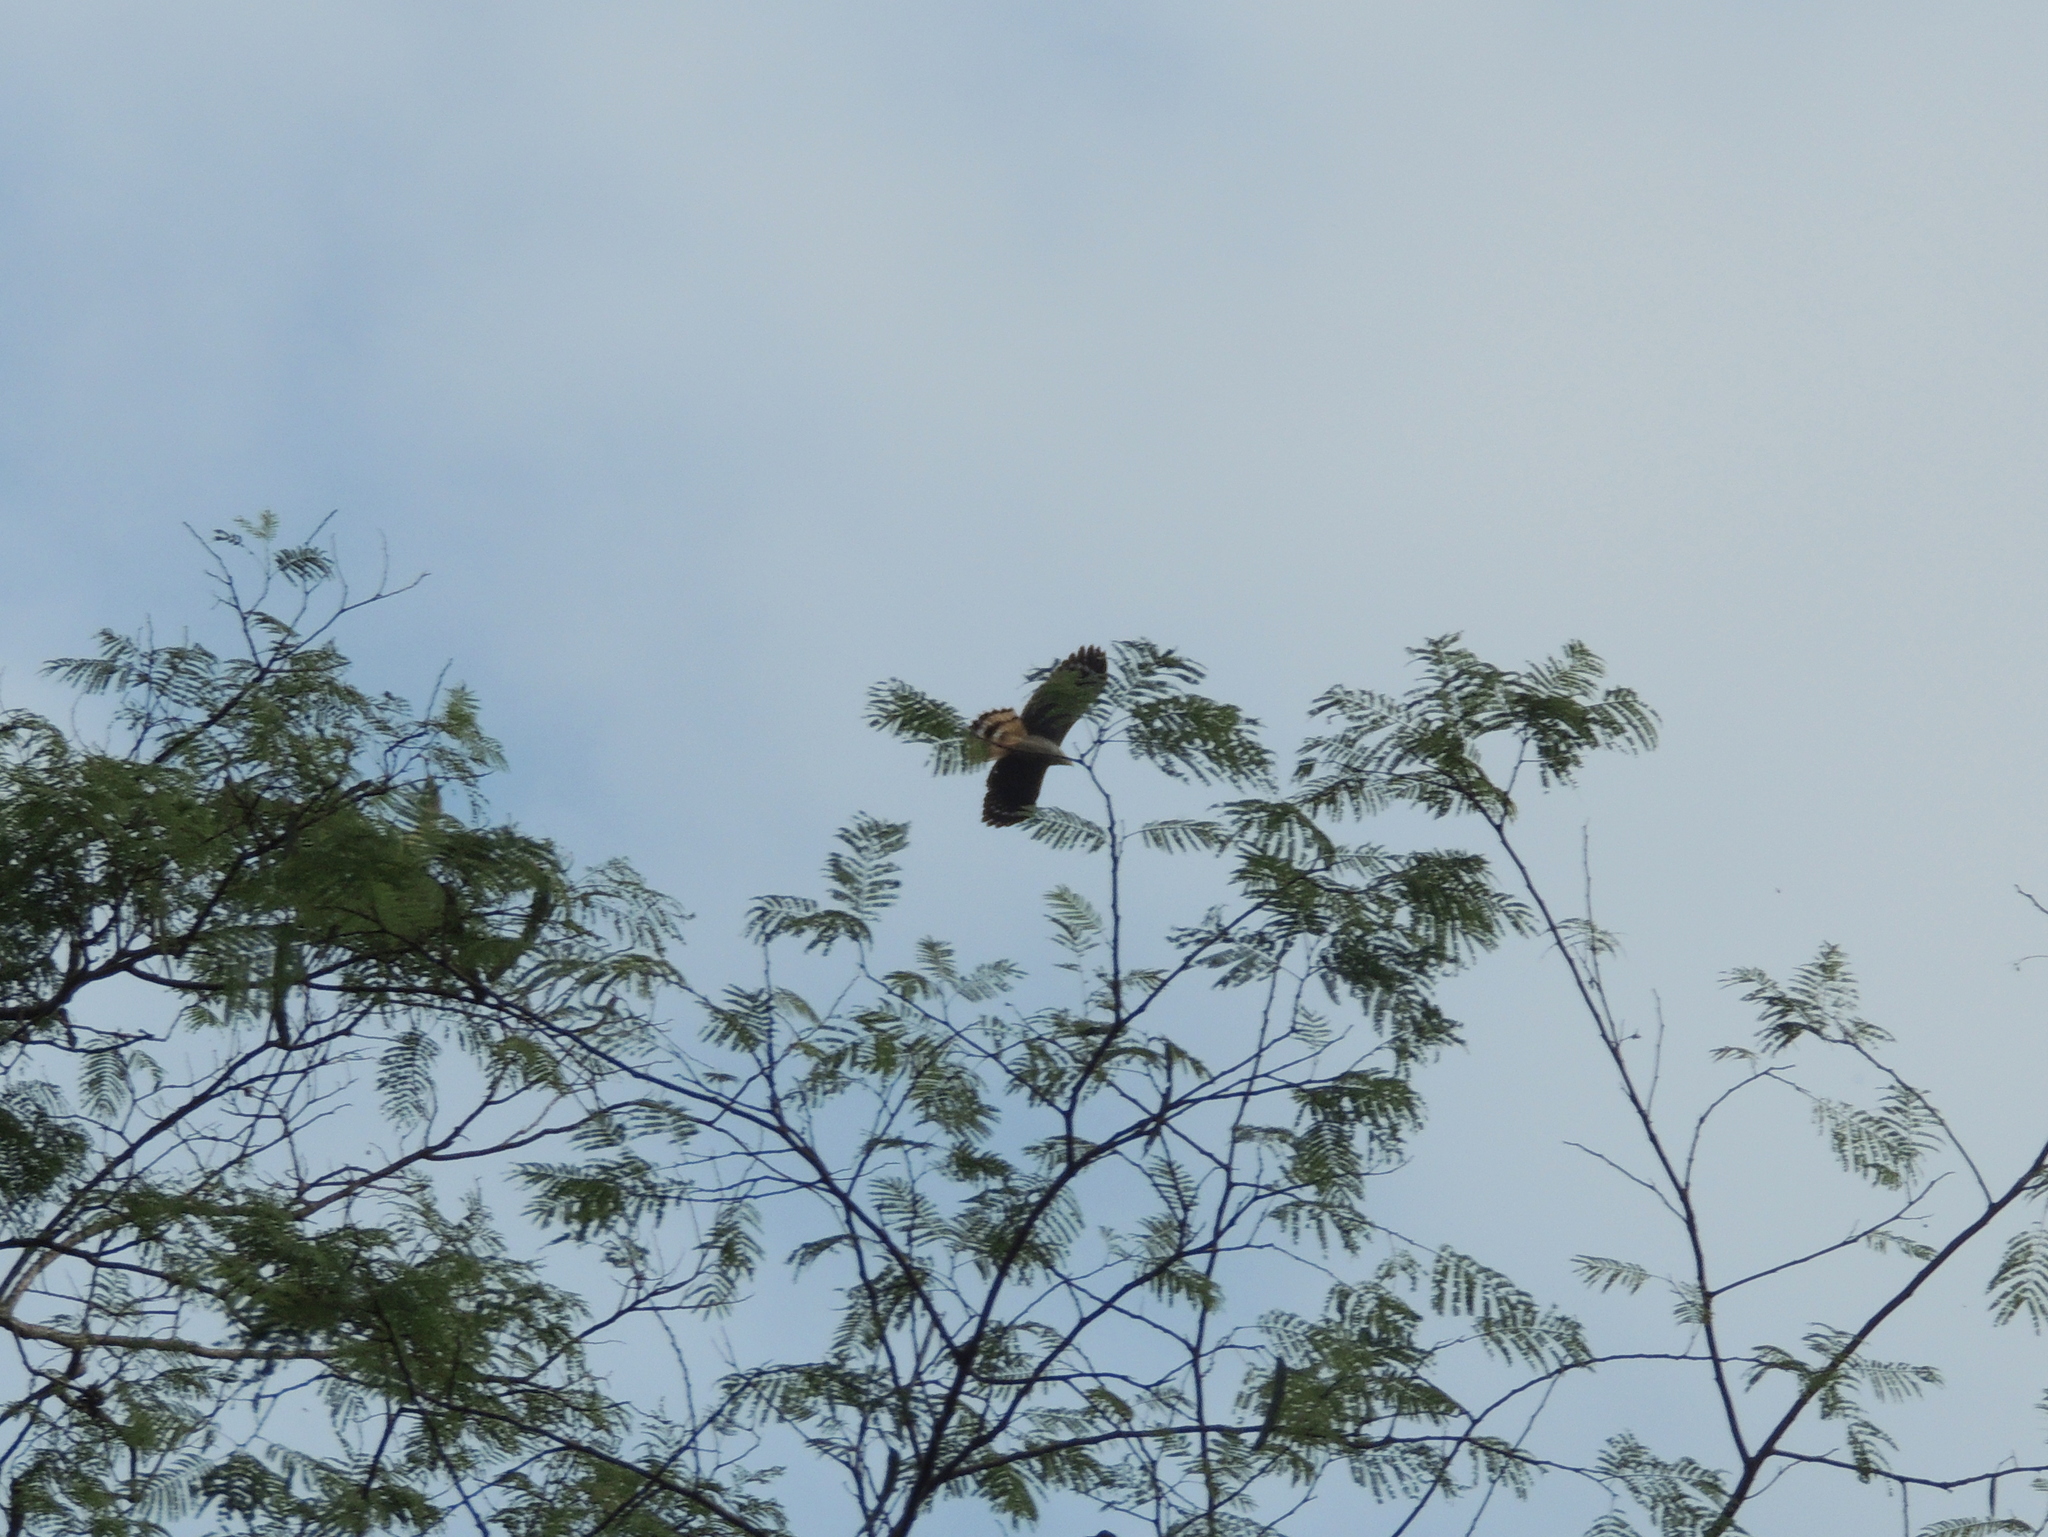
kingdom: Animalia
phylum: Chordata
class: Aves
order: Accipitriformes
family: Accipitridae
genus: Geranospiza
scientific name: Geranospiza caerulescens
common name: Crane hawk
